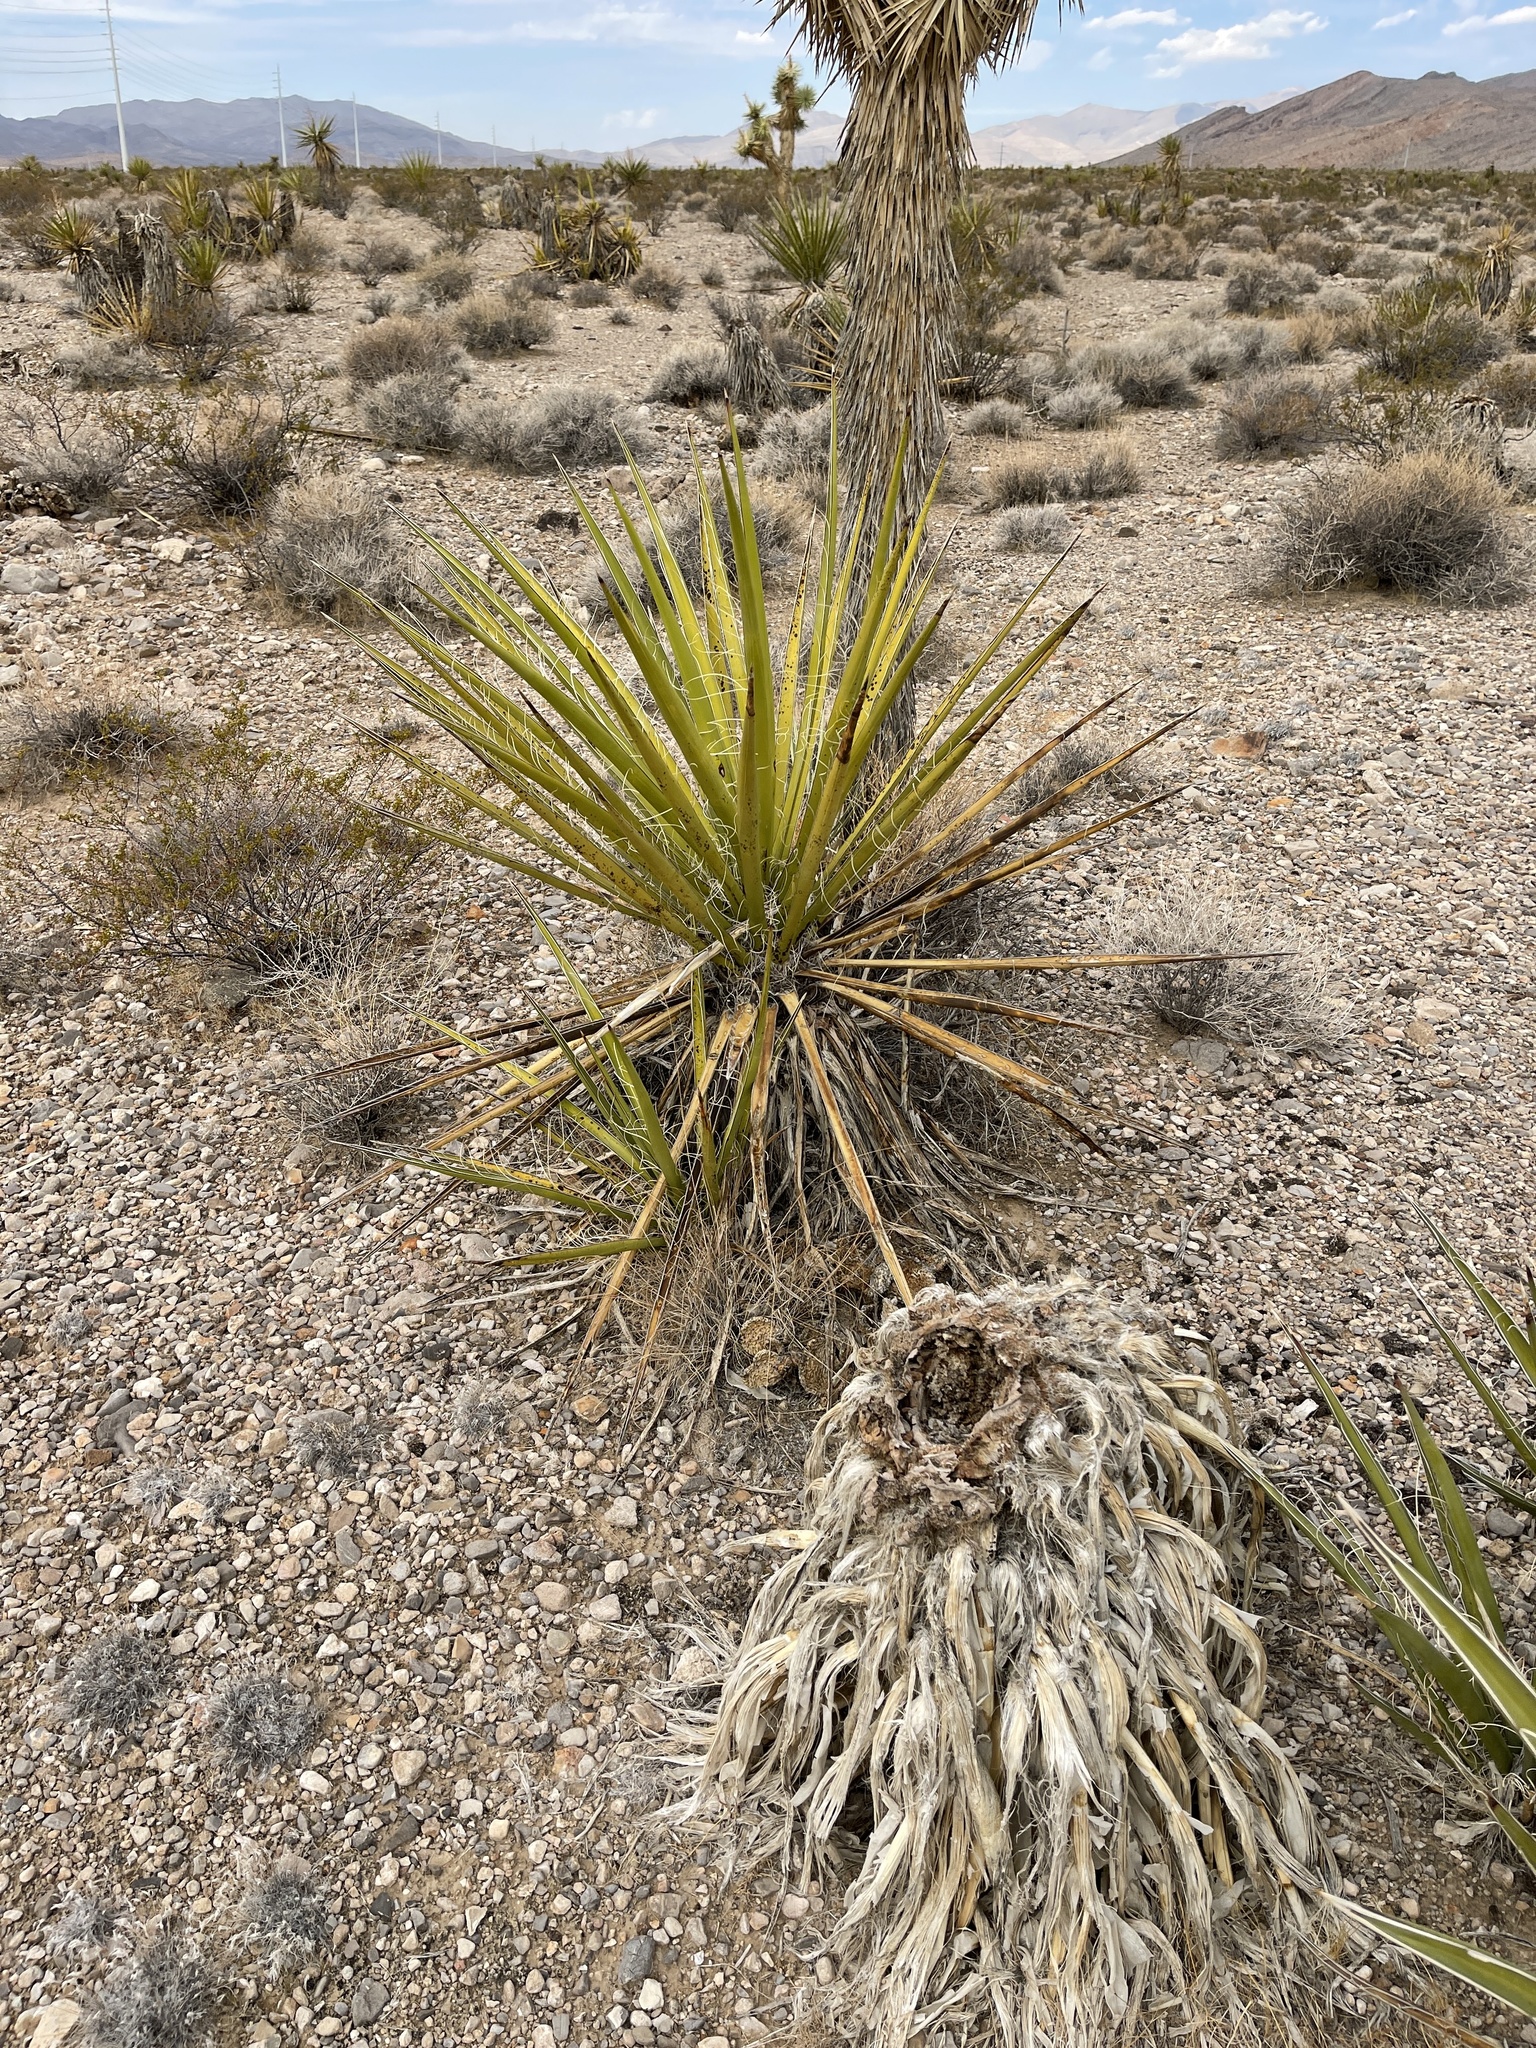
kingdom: Plantae
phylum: Tracheophyta
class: Liliopsida
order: Asparagales
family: Asparagaceae
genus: Yucca
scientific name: Yucca schidigera
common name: Mojave yucca
